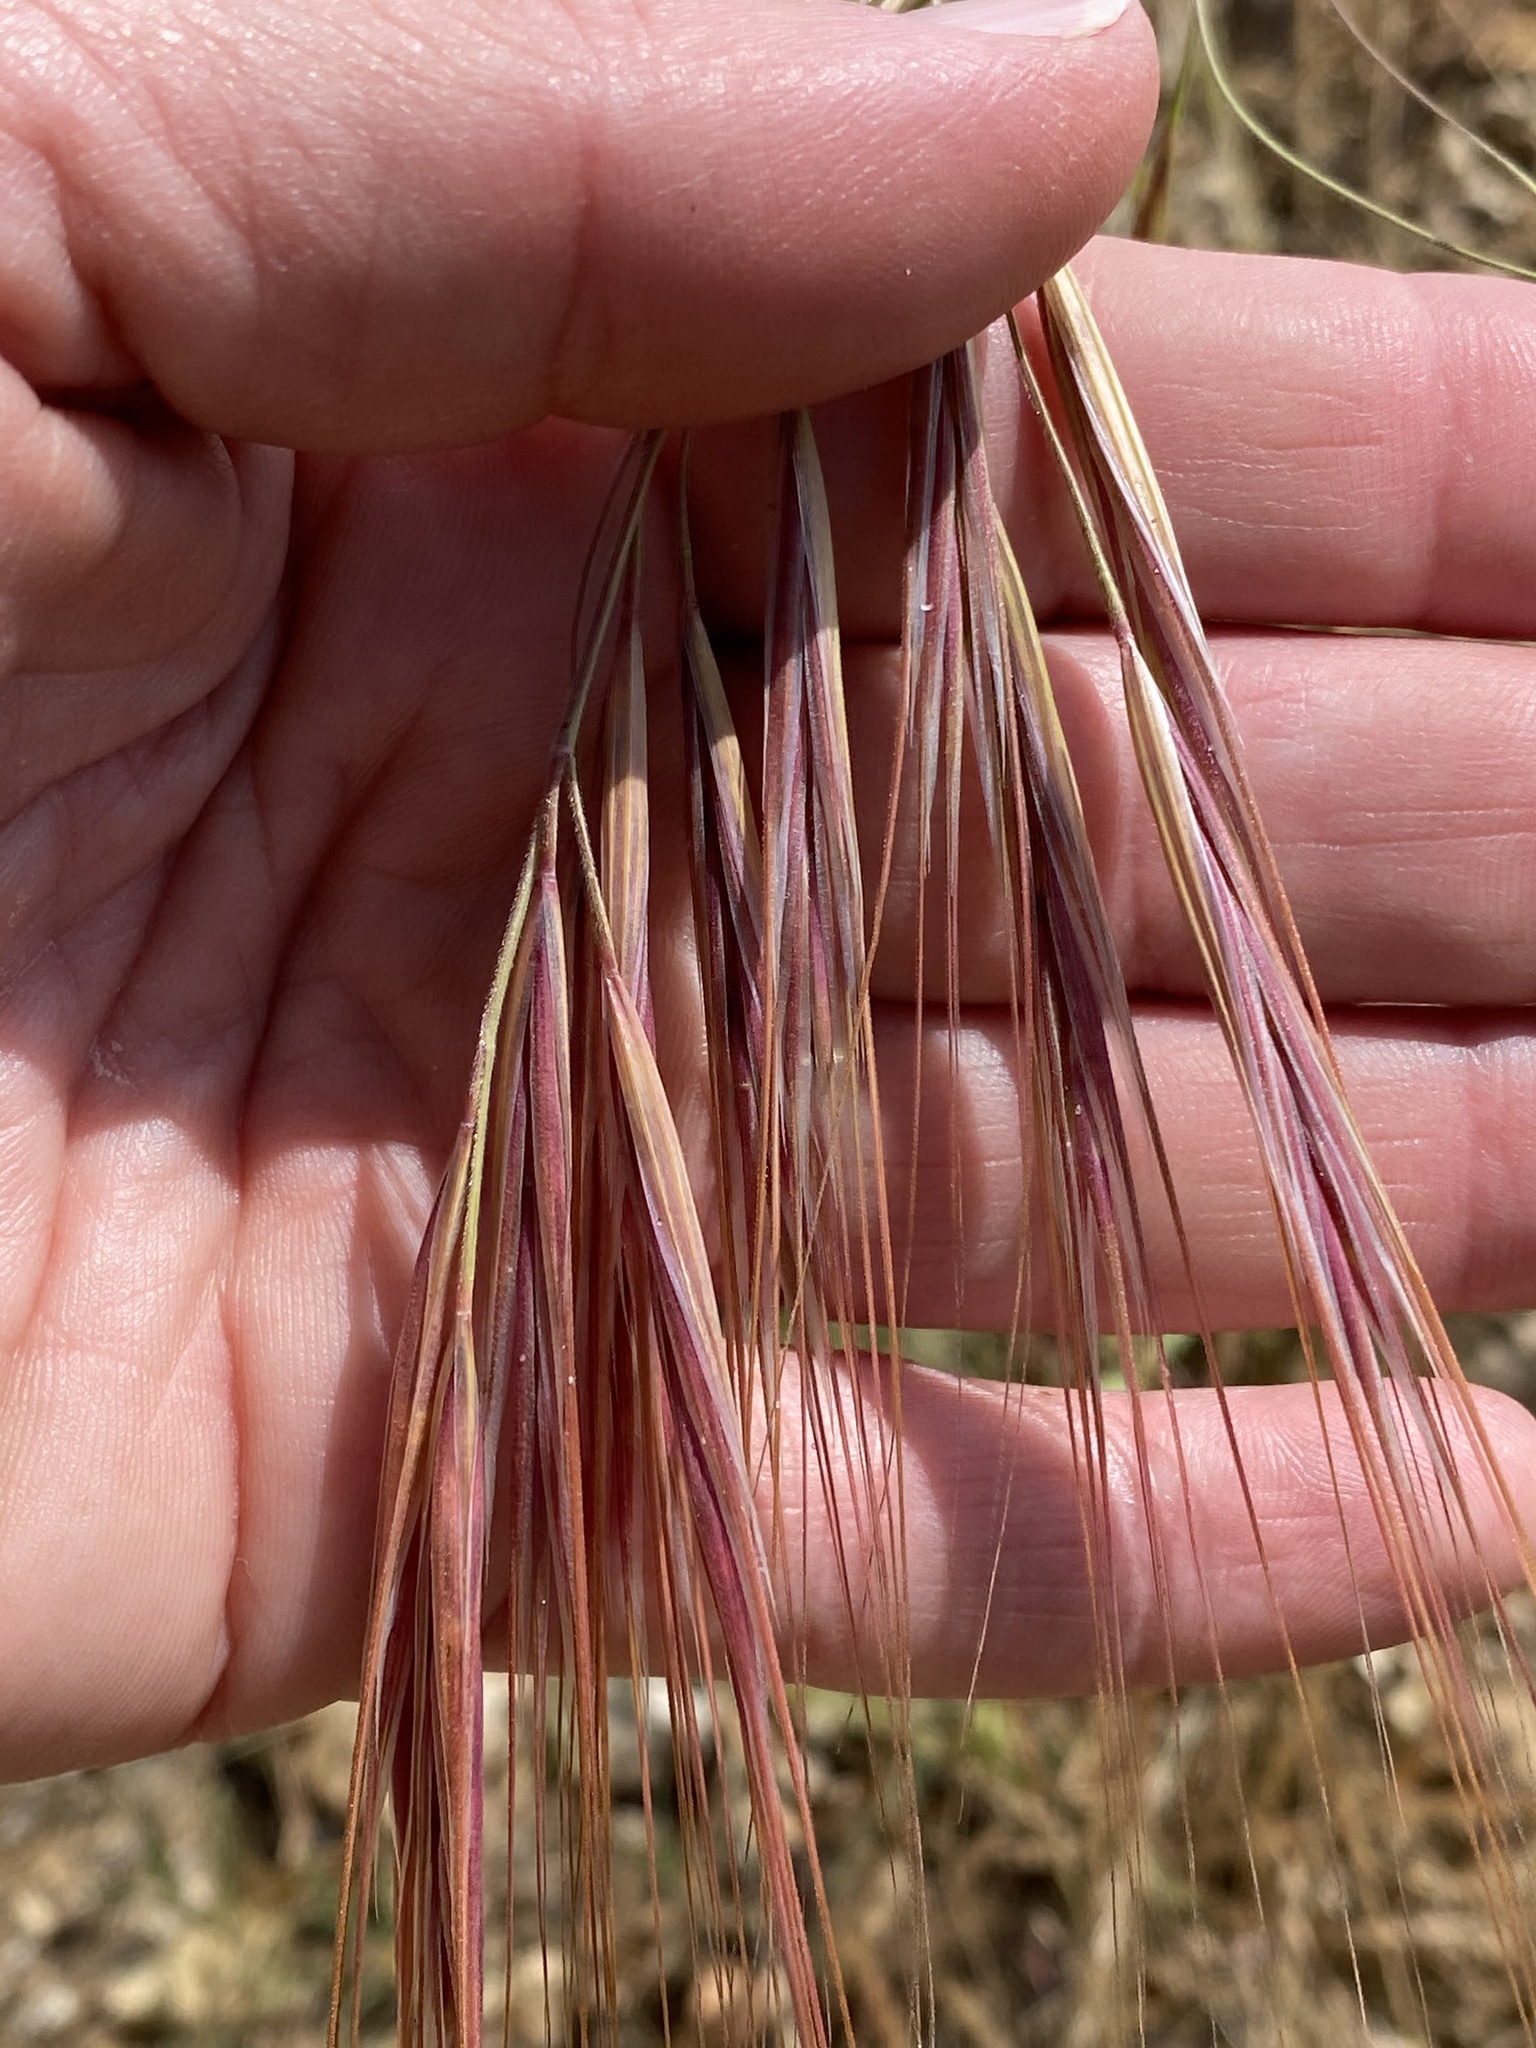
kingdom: Plantae
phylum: Tracheophyta
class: Liliopsida
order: Poales
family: Poaceae
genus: Bromus
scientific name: Bromus diandrus
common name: Ripgut brome
